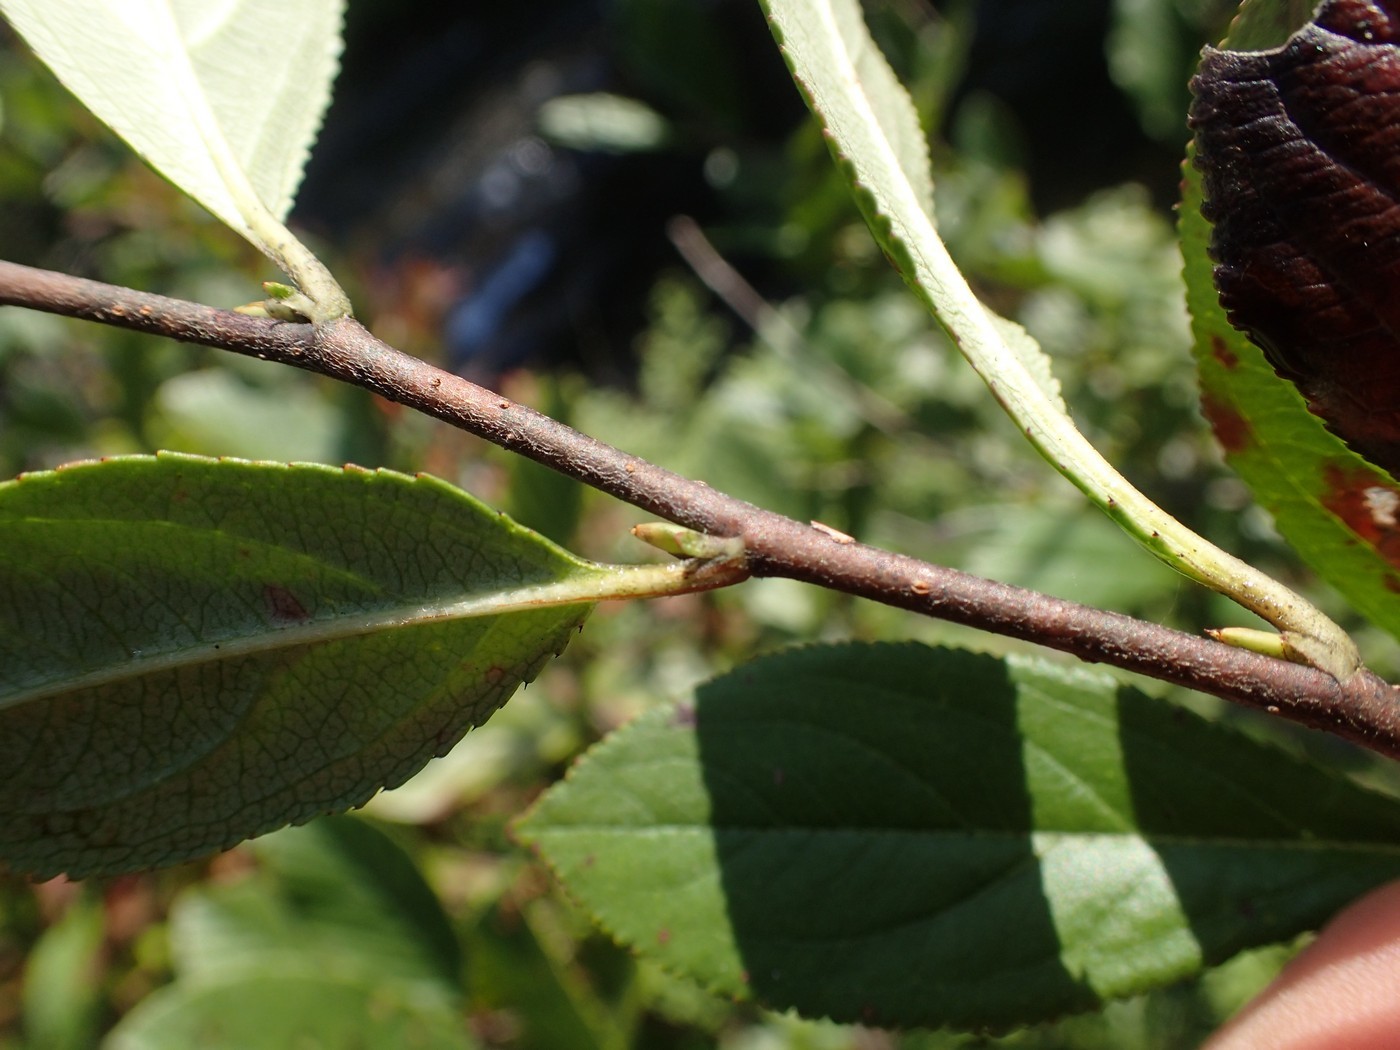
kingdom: Plantae
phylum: Tracheophyta
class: Magnoliopsida
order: Rosales
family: Rosaceae
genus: Aronia
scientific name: Aronia prunifolia
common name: Purple chokeberry
